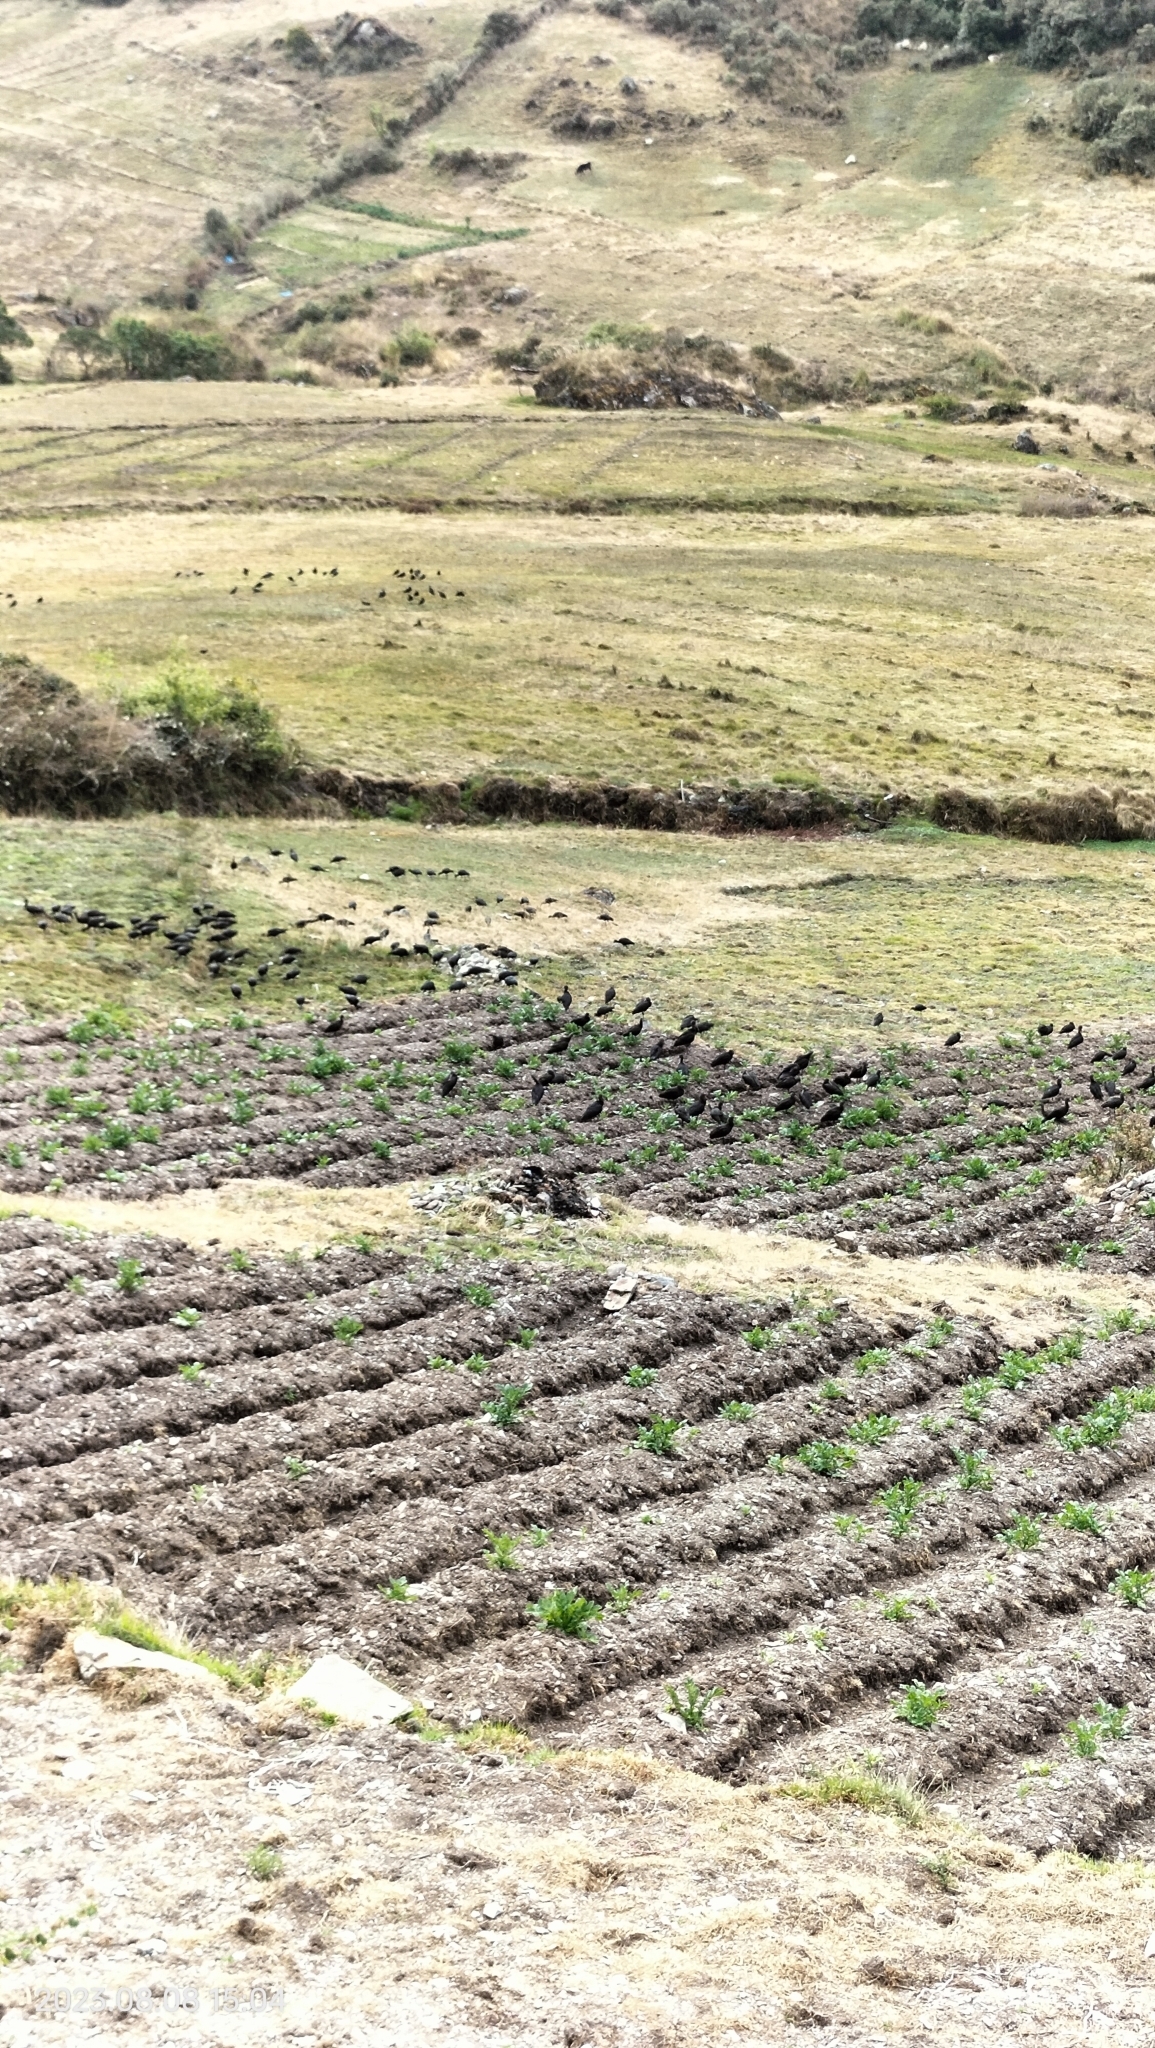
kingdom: Animalia
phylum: Chordata
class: Aves
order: Pelecaniformes
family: Threskiornithidae
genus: Plegadis
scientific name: Plegadis ridgwayi
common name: Puna ibis
